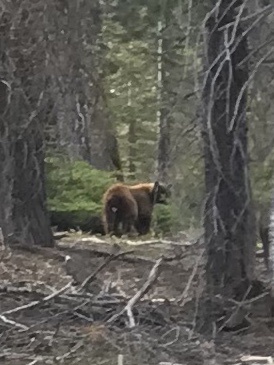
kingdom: Animalia
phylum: Chordata
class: Mammalia
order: Carnivora
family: Ursidae
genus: Ursus
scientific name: Ursus americanus
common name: American black bear
